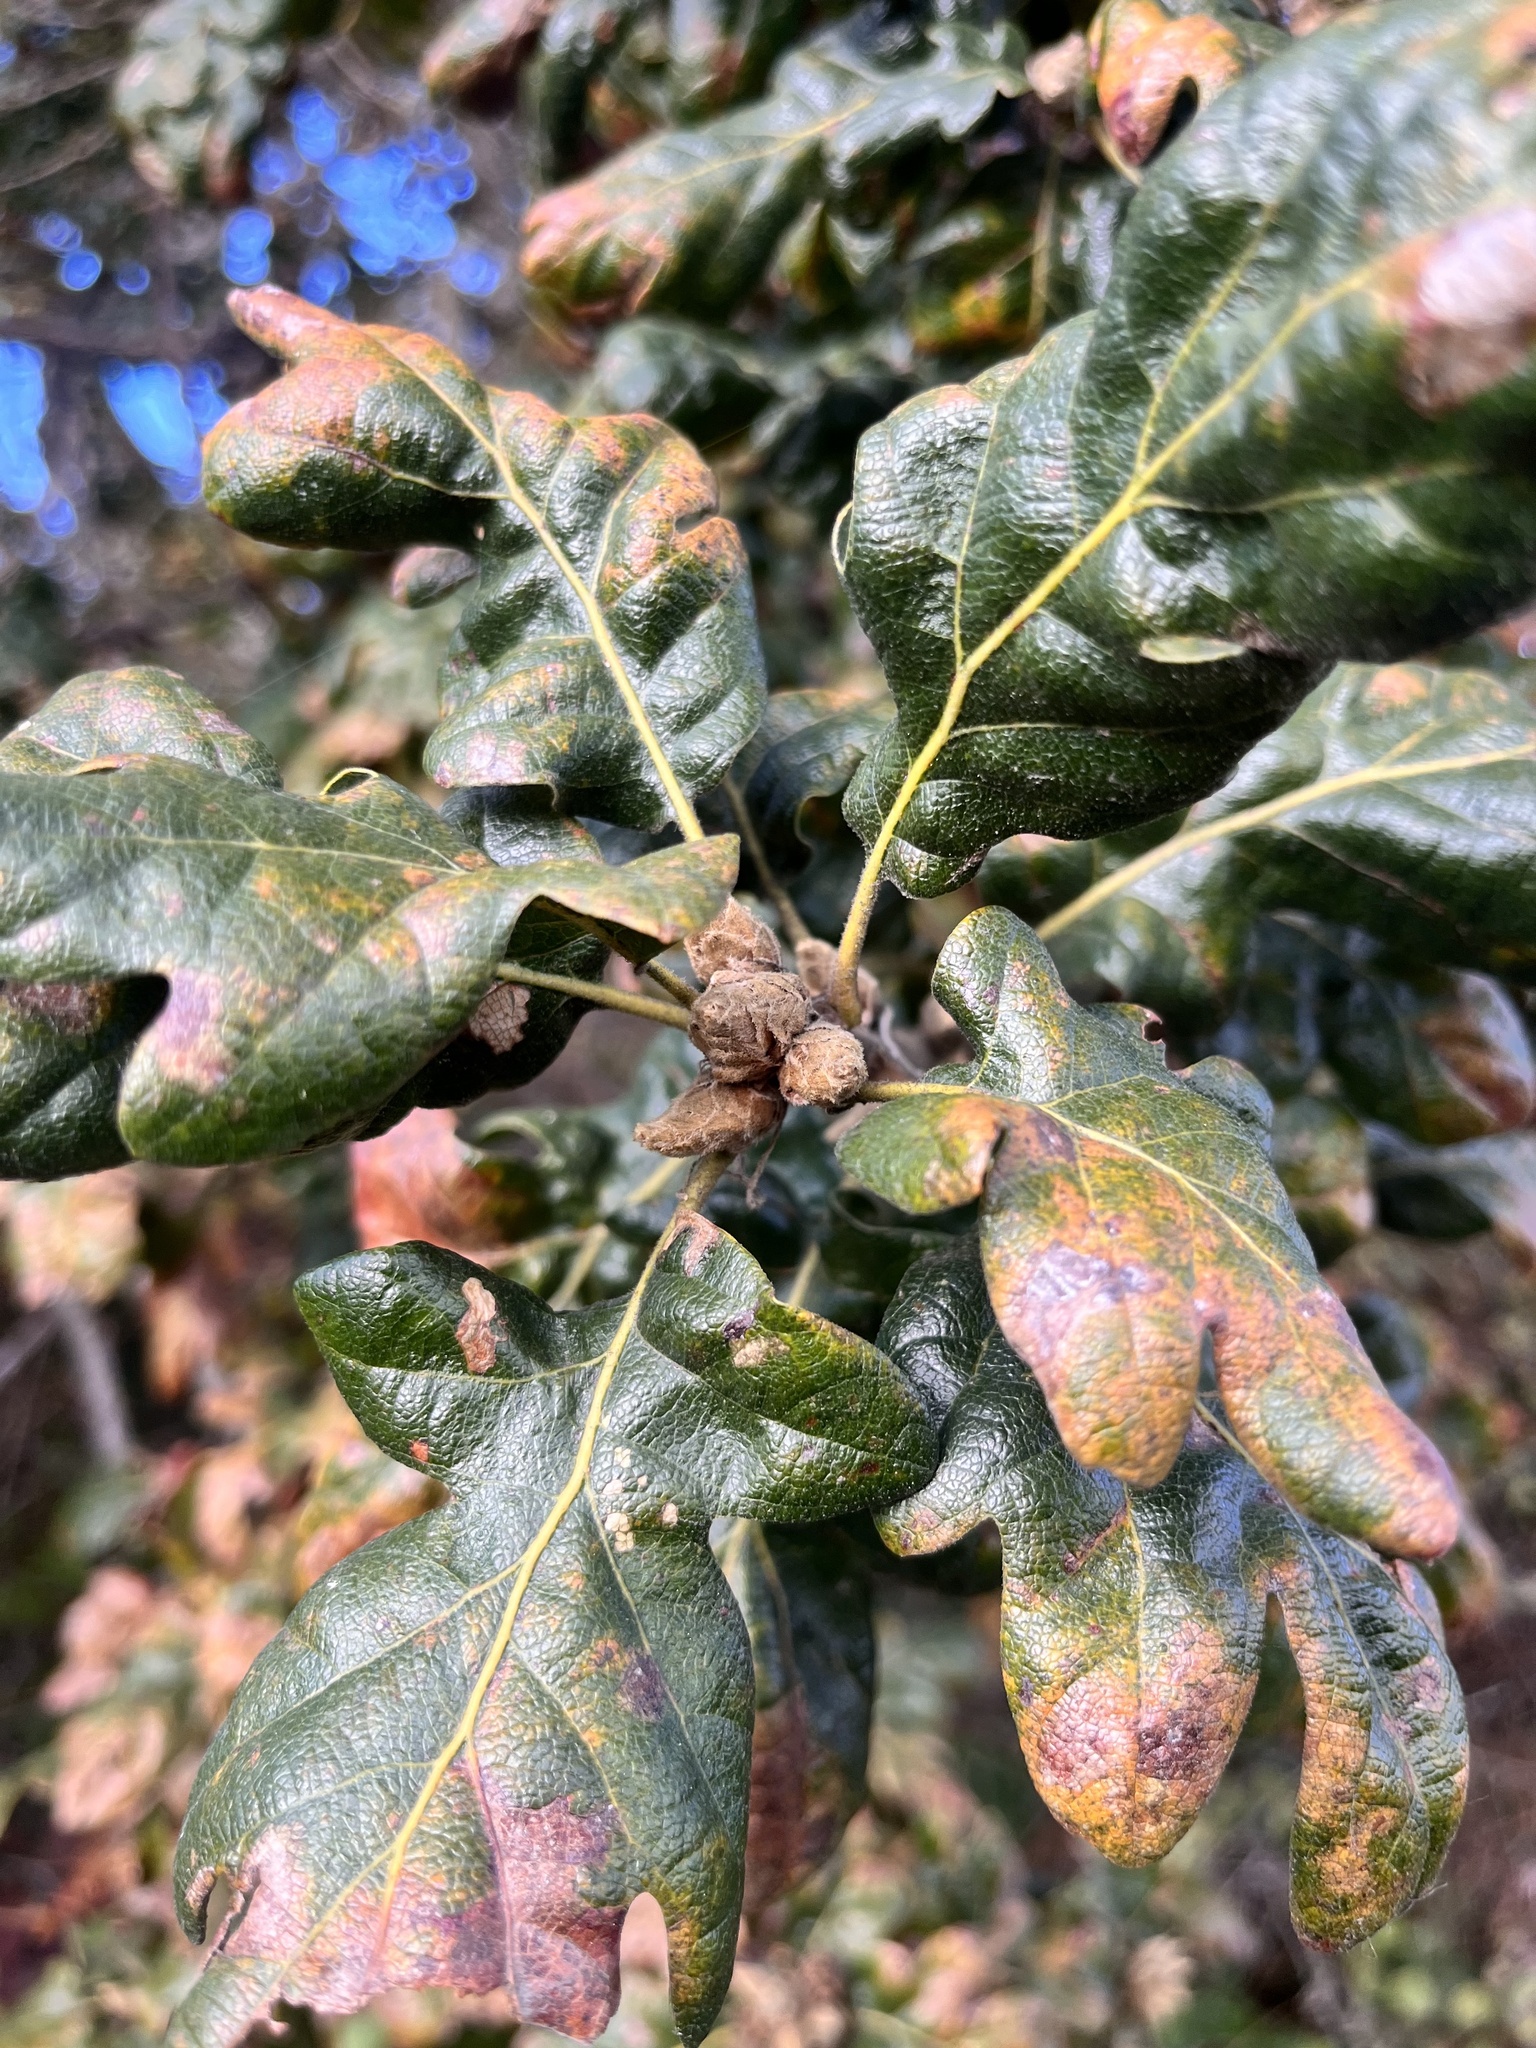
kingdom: Plantae
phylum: Tracheophyta
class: Magnoliopsida
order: Fagales
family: Fagaceae
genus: Quercus
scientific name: Quercus garryana
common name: Garry oak
